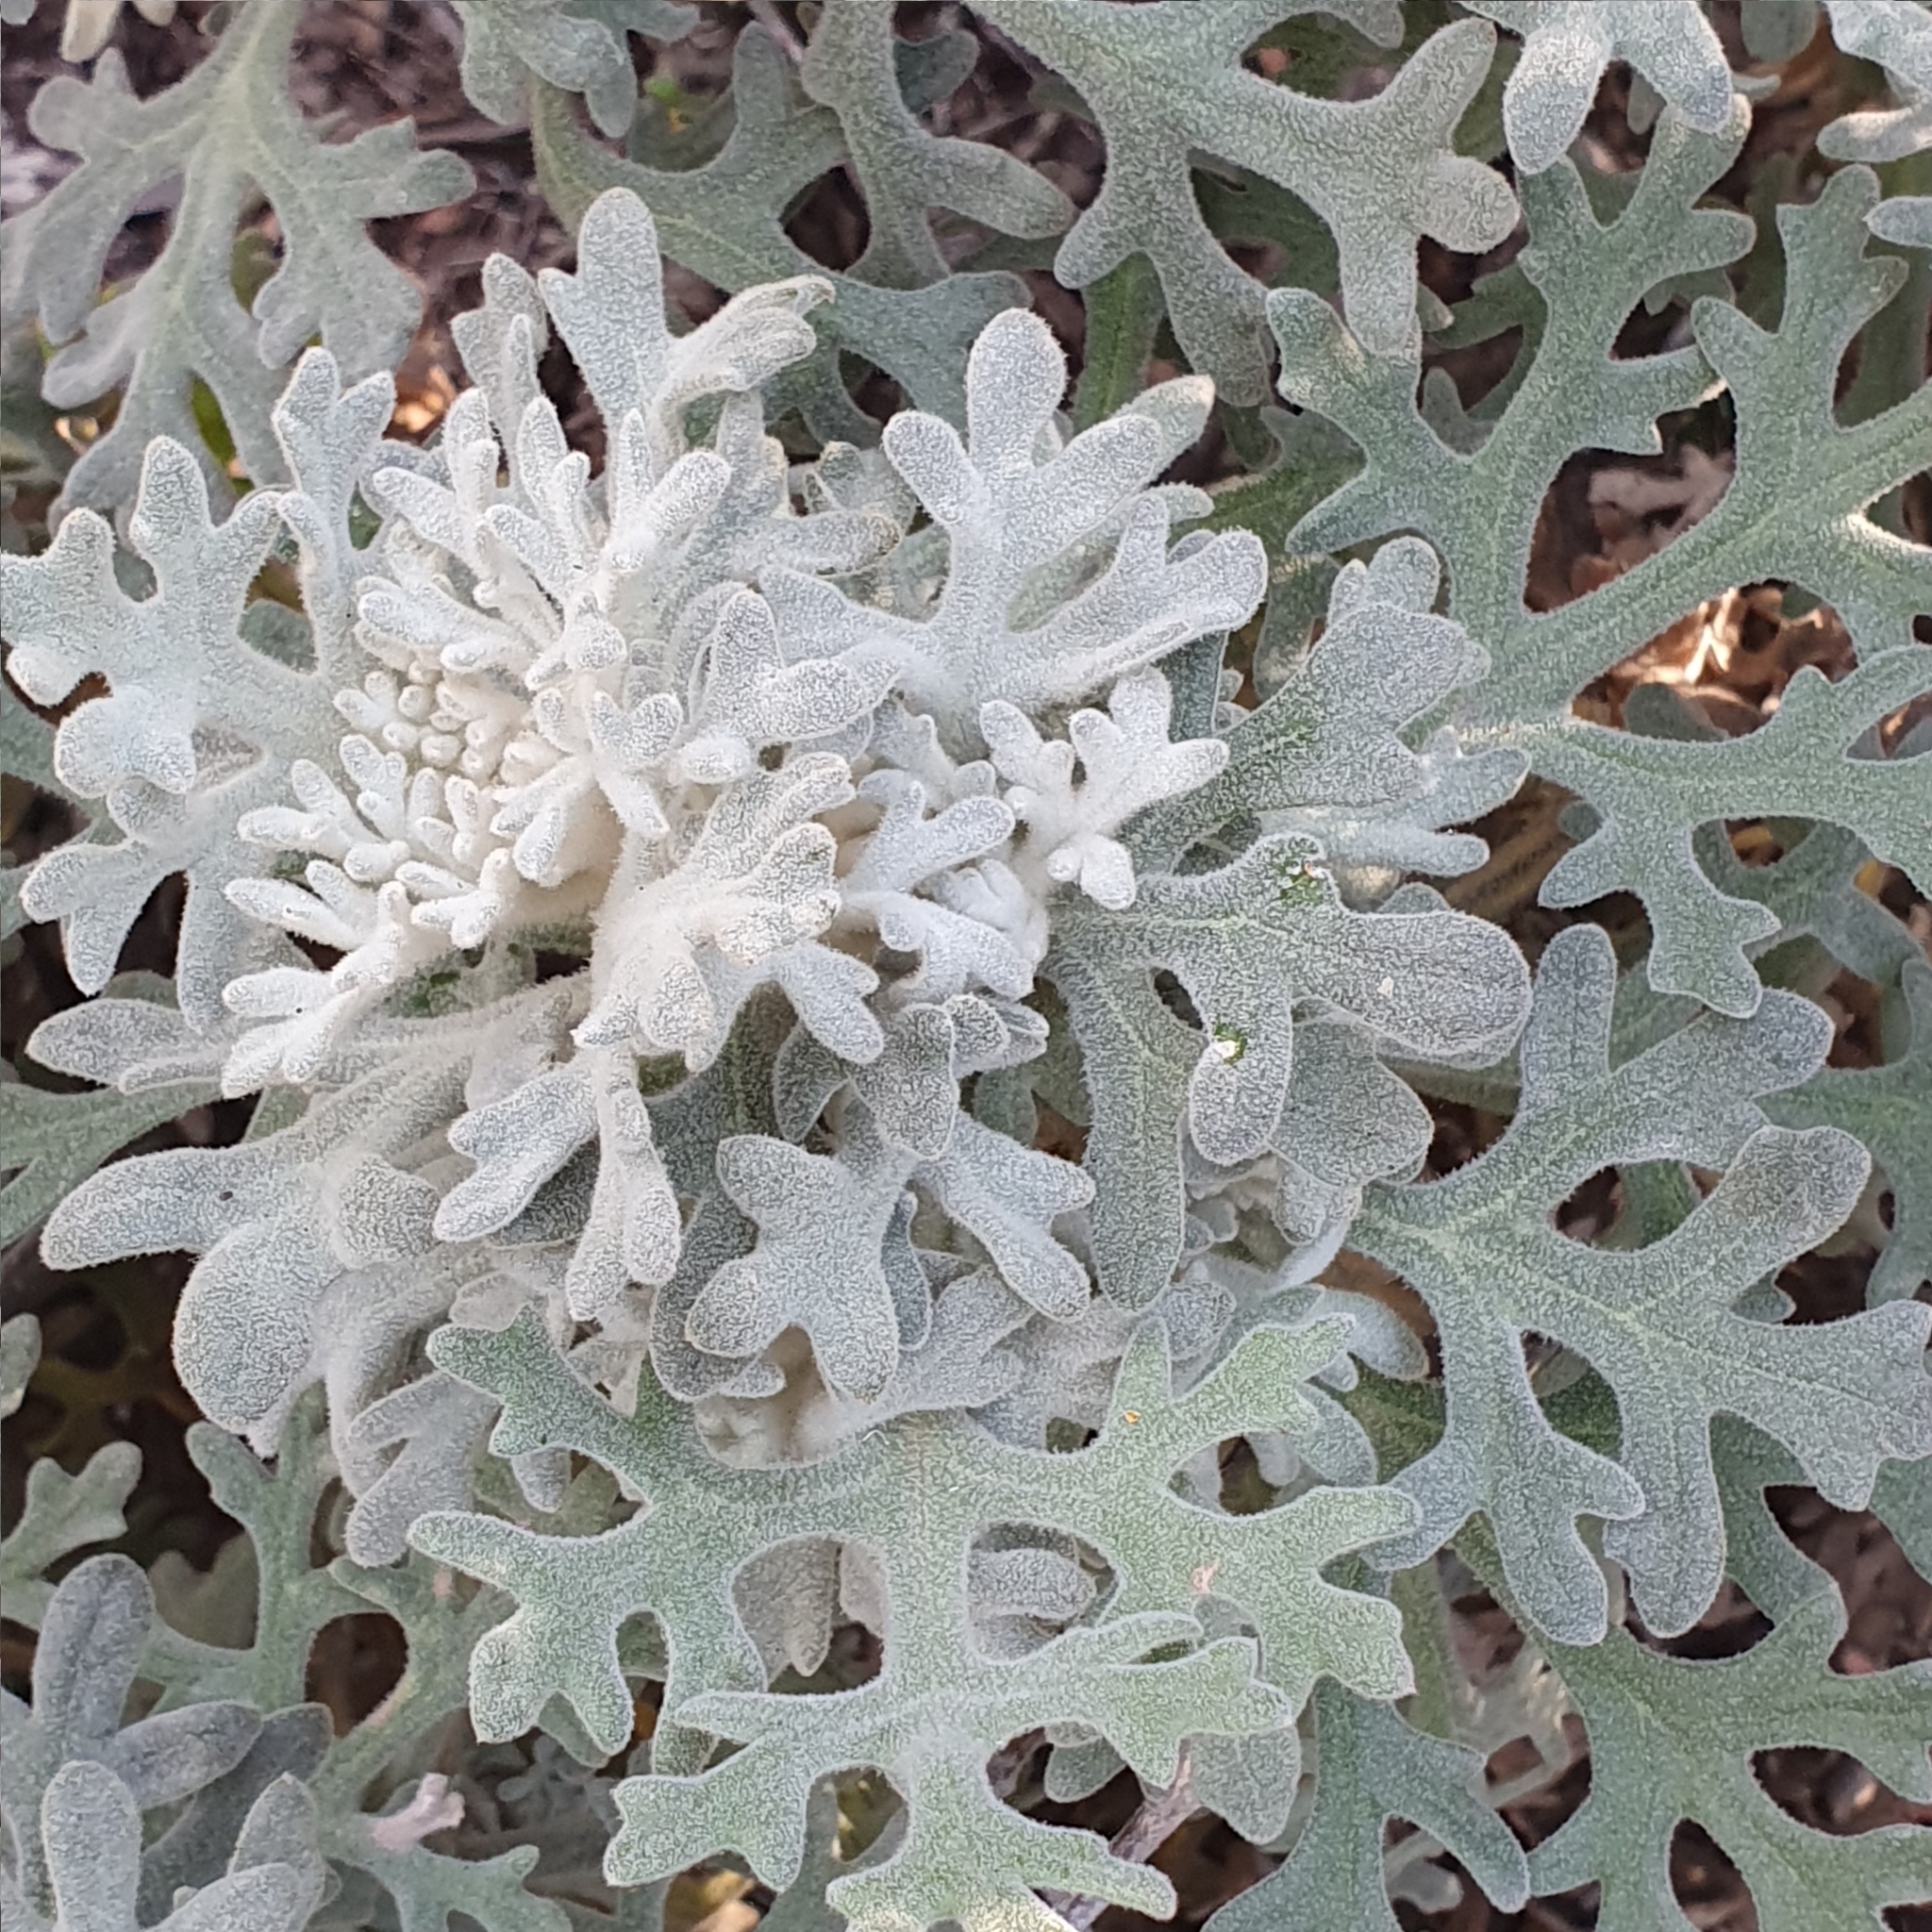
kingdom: Plantae
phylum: Tracheophyta
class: Magnoliopsida
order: Apiales
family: Apiaceae
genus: Actinotus
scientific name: Actinotus helianthi
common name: Flannel-flower
